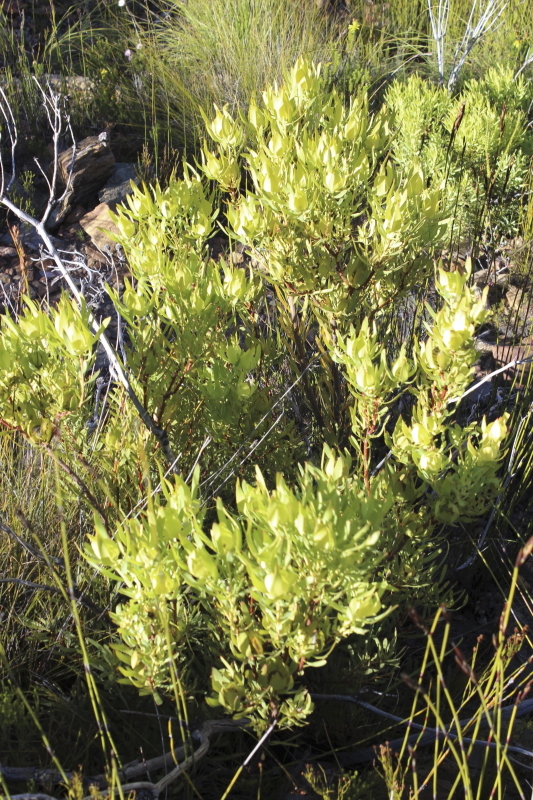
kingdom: Plantae
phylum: Tracheophyta
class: Magnoliopsida
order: Proteales
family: Proteaceae
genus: Leucadendron
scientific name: Leucadendron salignum
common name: Common sunshine conebush
